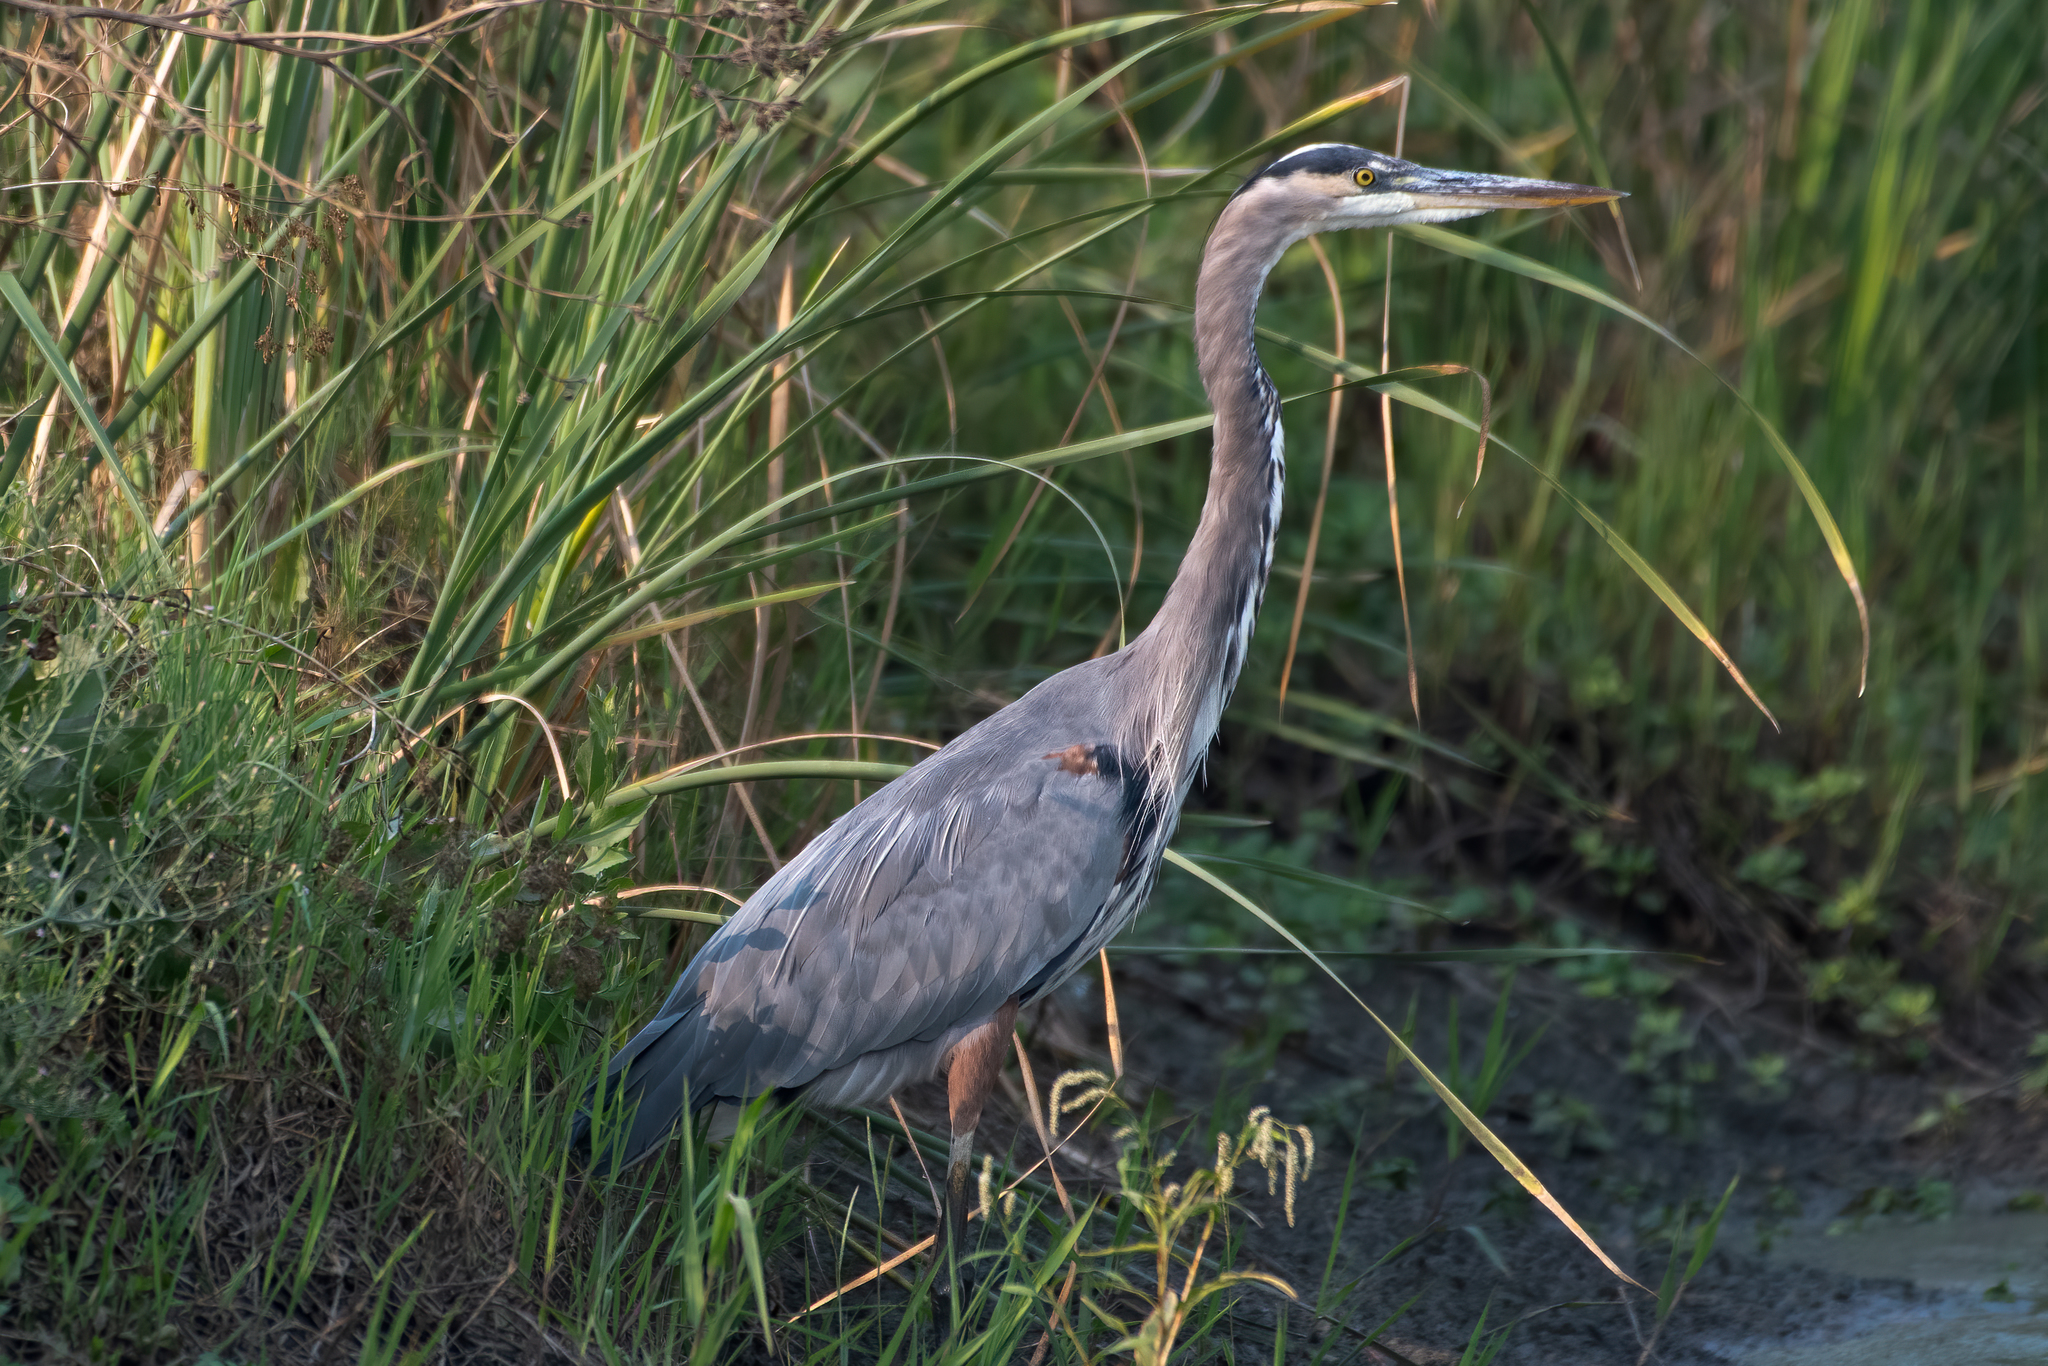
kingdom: Animalia
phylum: Chordata
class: Aves
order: Pelecaniformes
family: Ardeidae
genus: Ardea
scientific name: Ardea herodias
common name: Great blue heron
